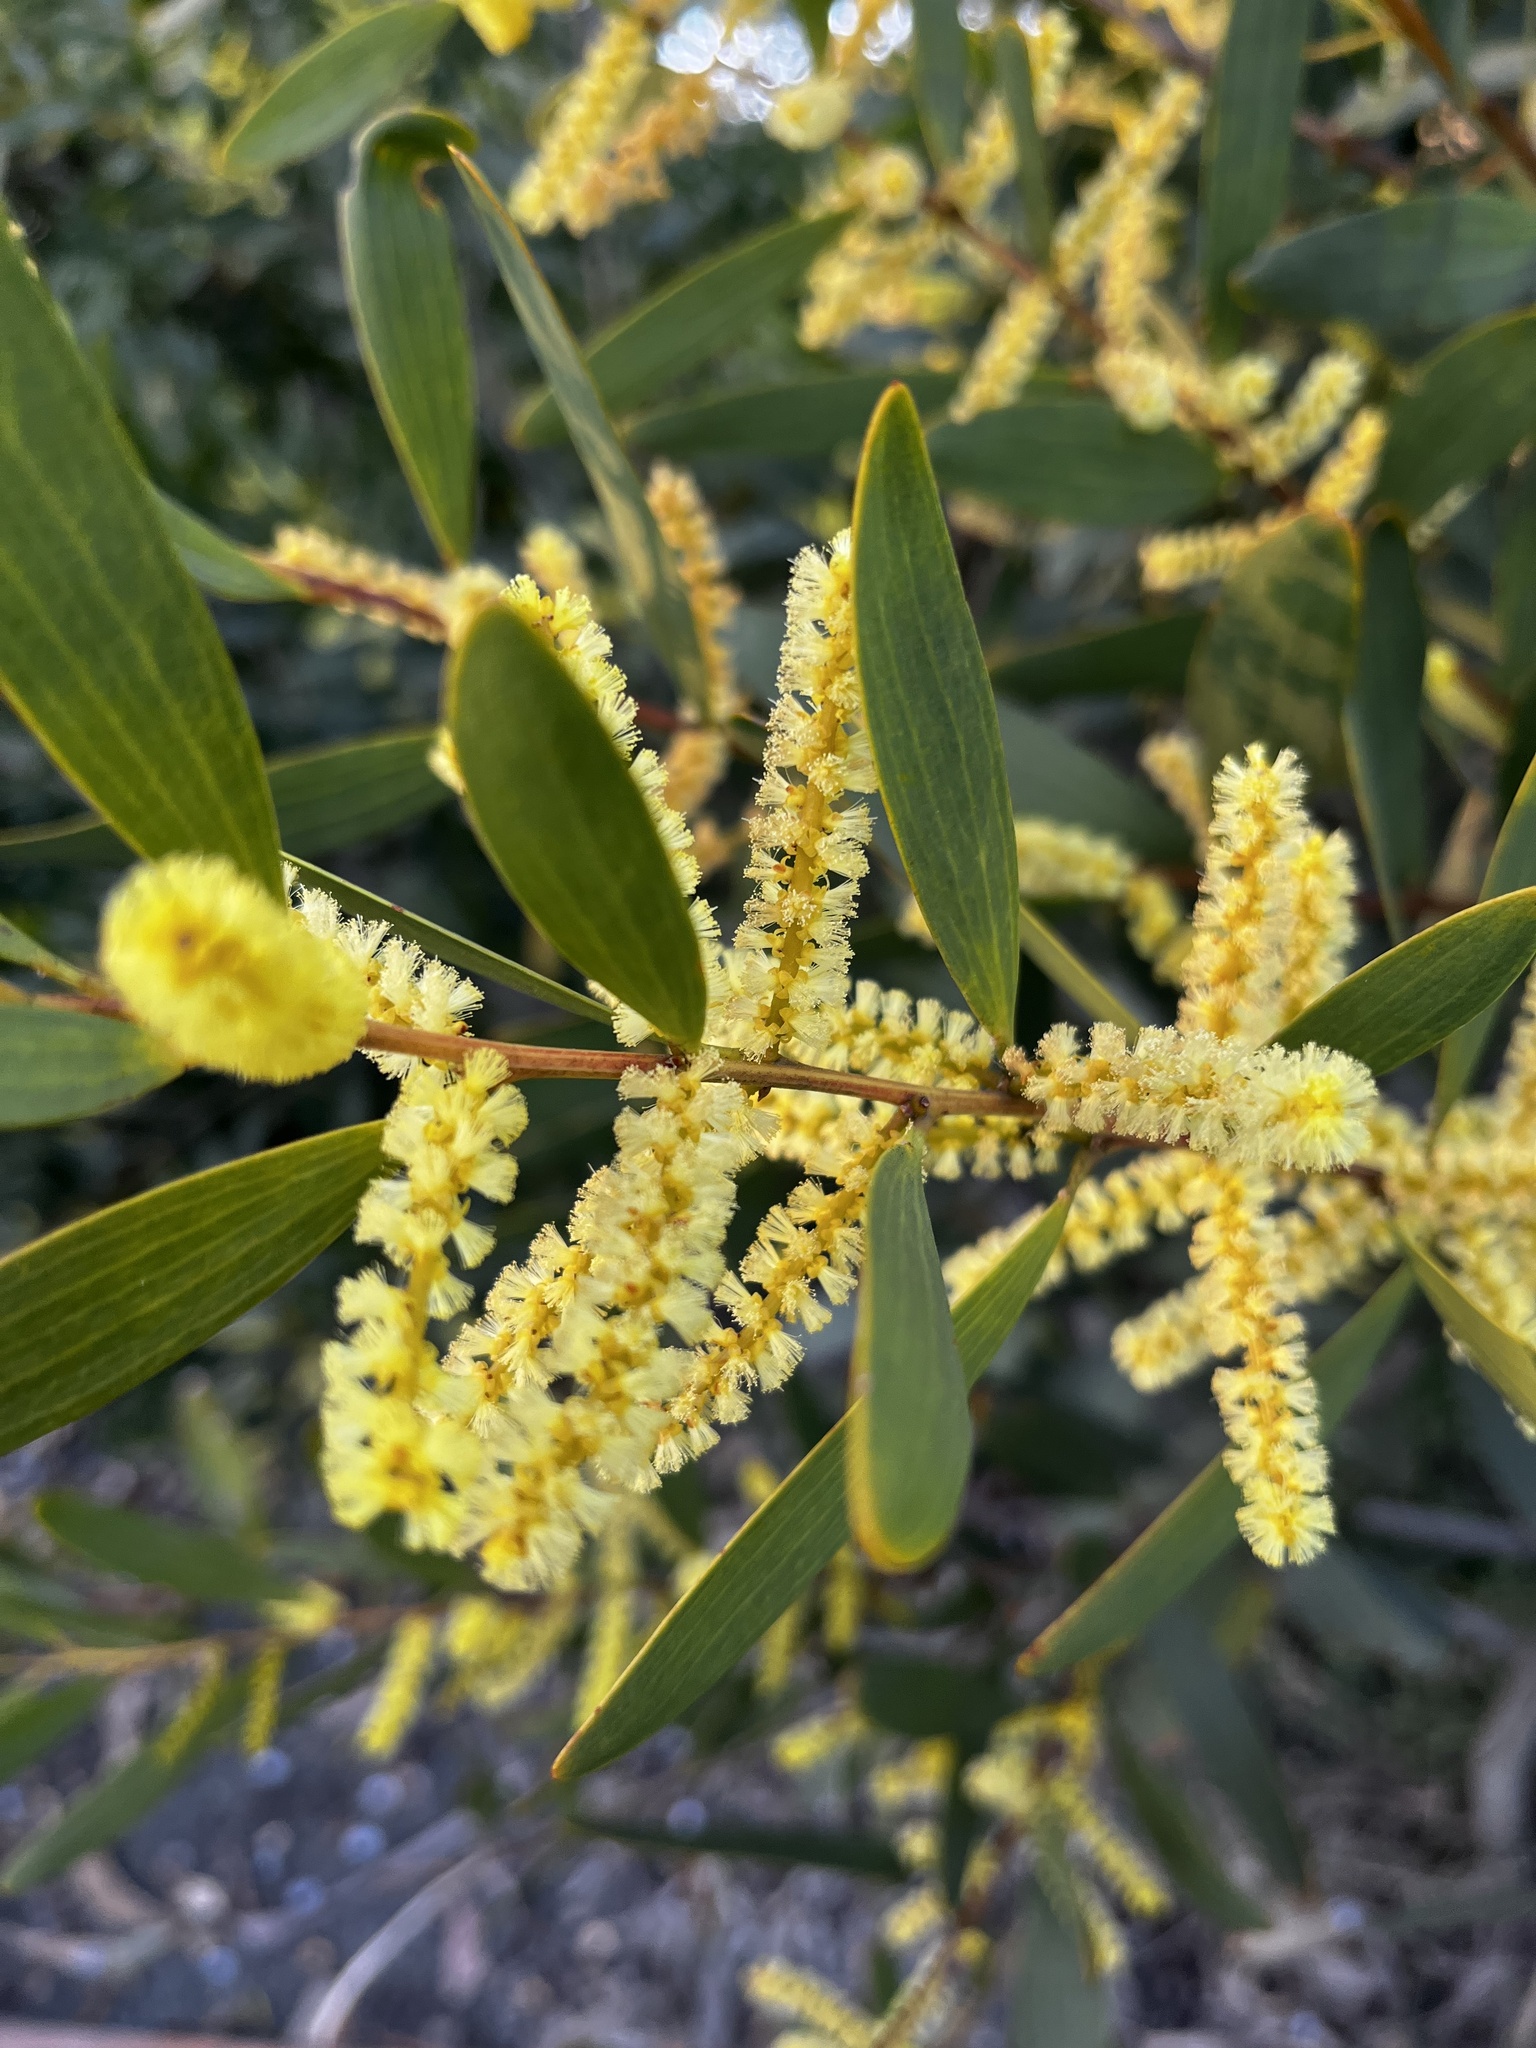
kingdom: Plantae
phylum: Tracheophyta
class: Magnoliopsida
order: Fabales
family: Fabaceae
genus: Acacia
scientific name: Acacia longifolia
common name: Sydney golden wattle
